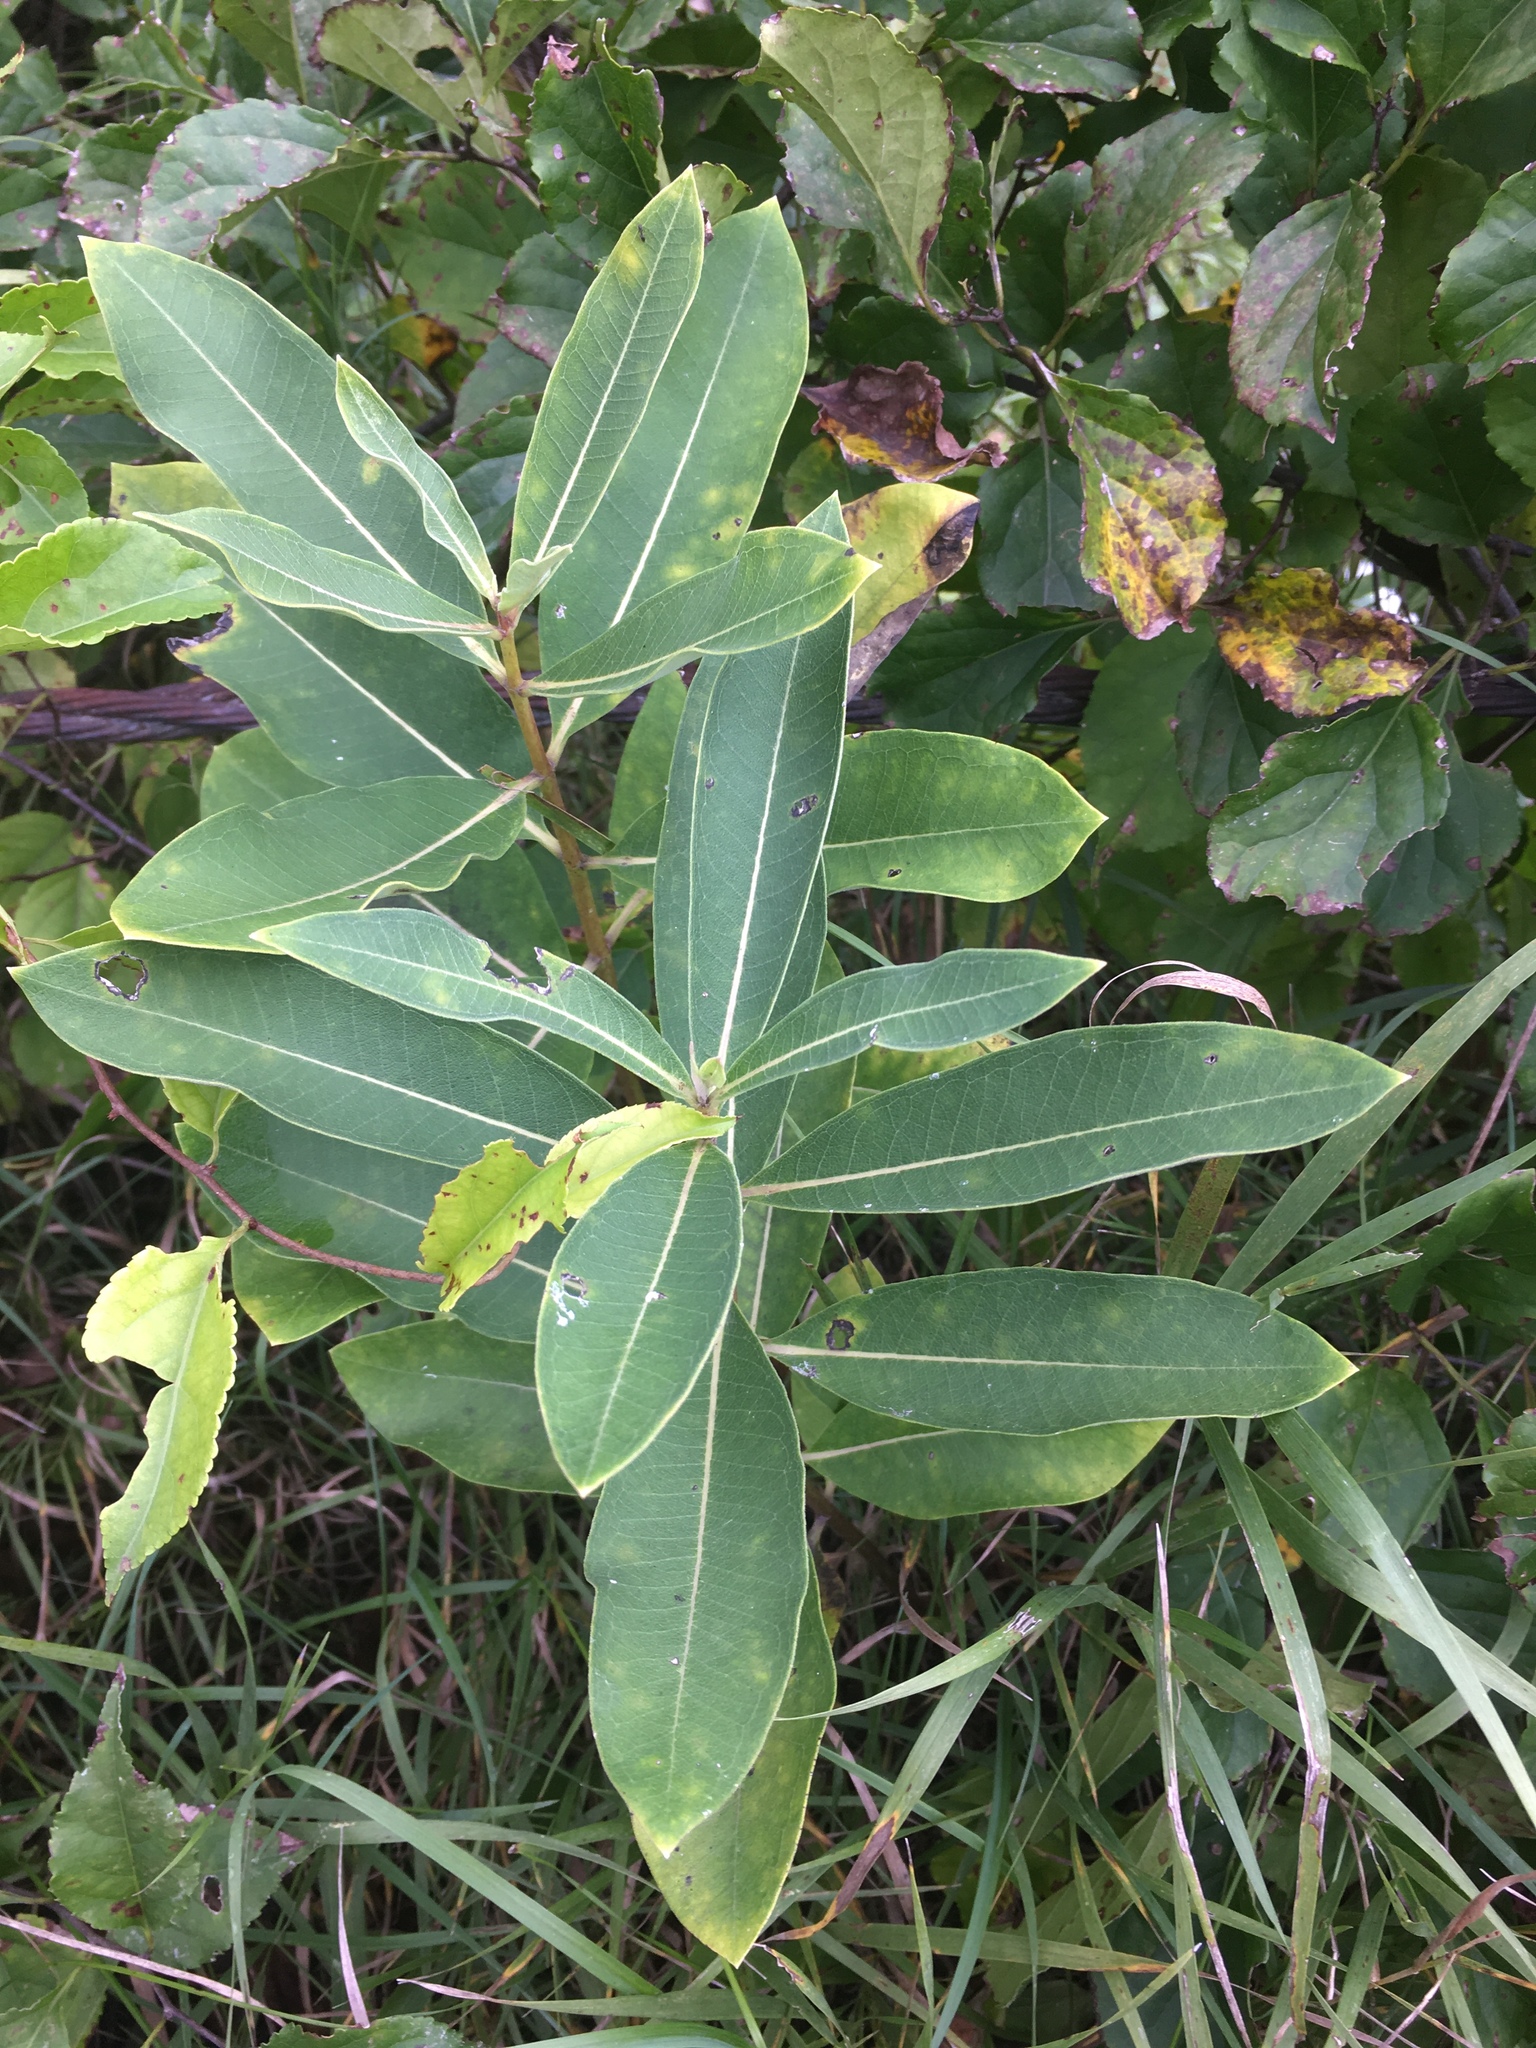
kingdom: Plantae
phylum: Tracheophyta
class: Magnoliopsida
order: Gentianales
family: Apocynaceae
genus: Asclepias
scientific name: Asclepias syriaca
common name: Common milkweed
